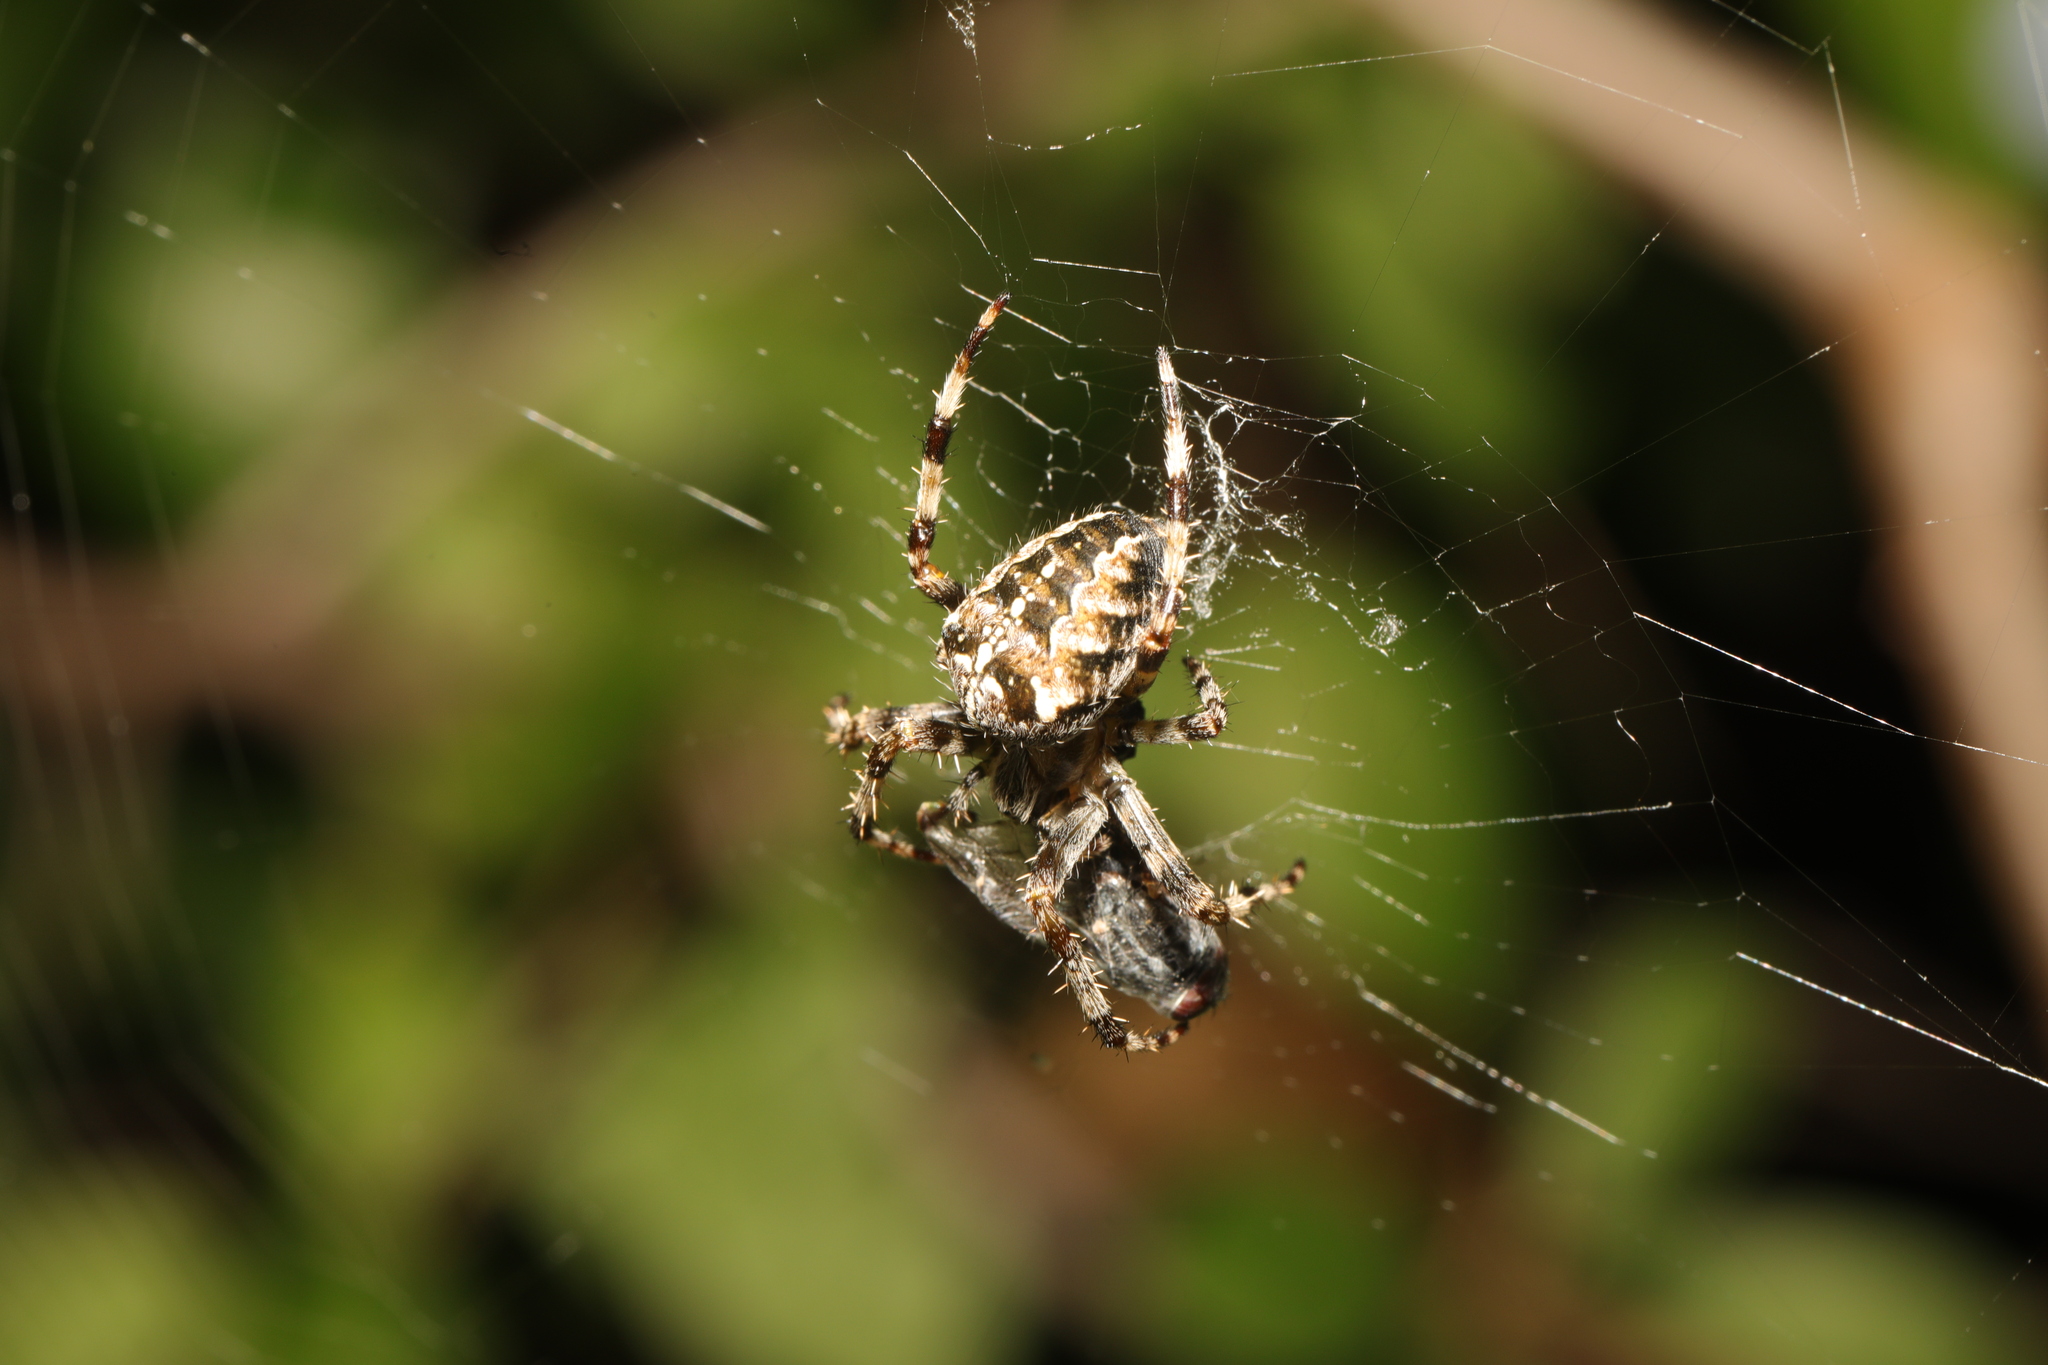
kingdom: Animalia
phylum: Arthropoda
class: Arachnida
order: Araneae
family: Araneidae
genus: Araneus
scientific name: Araneus diadematus
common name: Cross orbweaver
